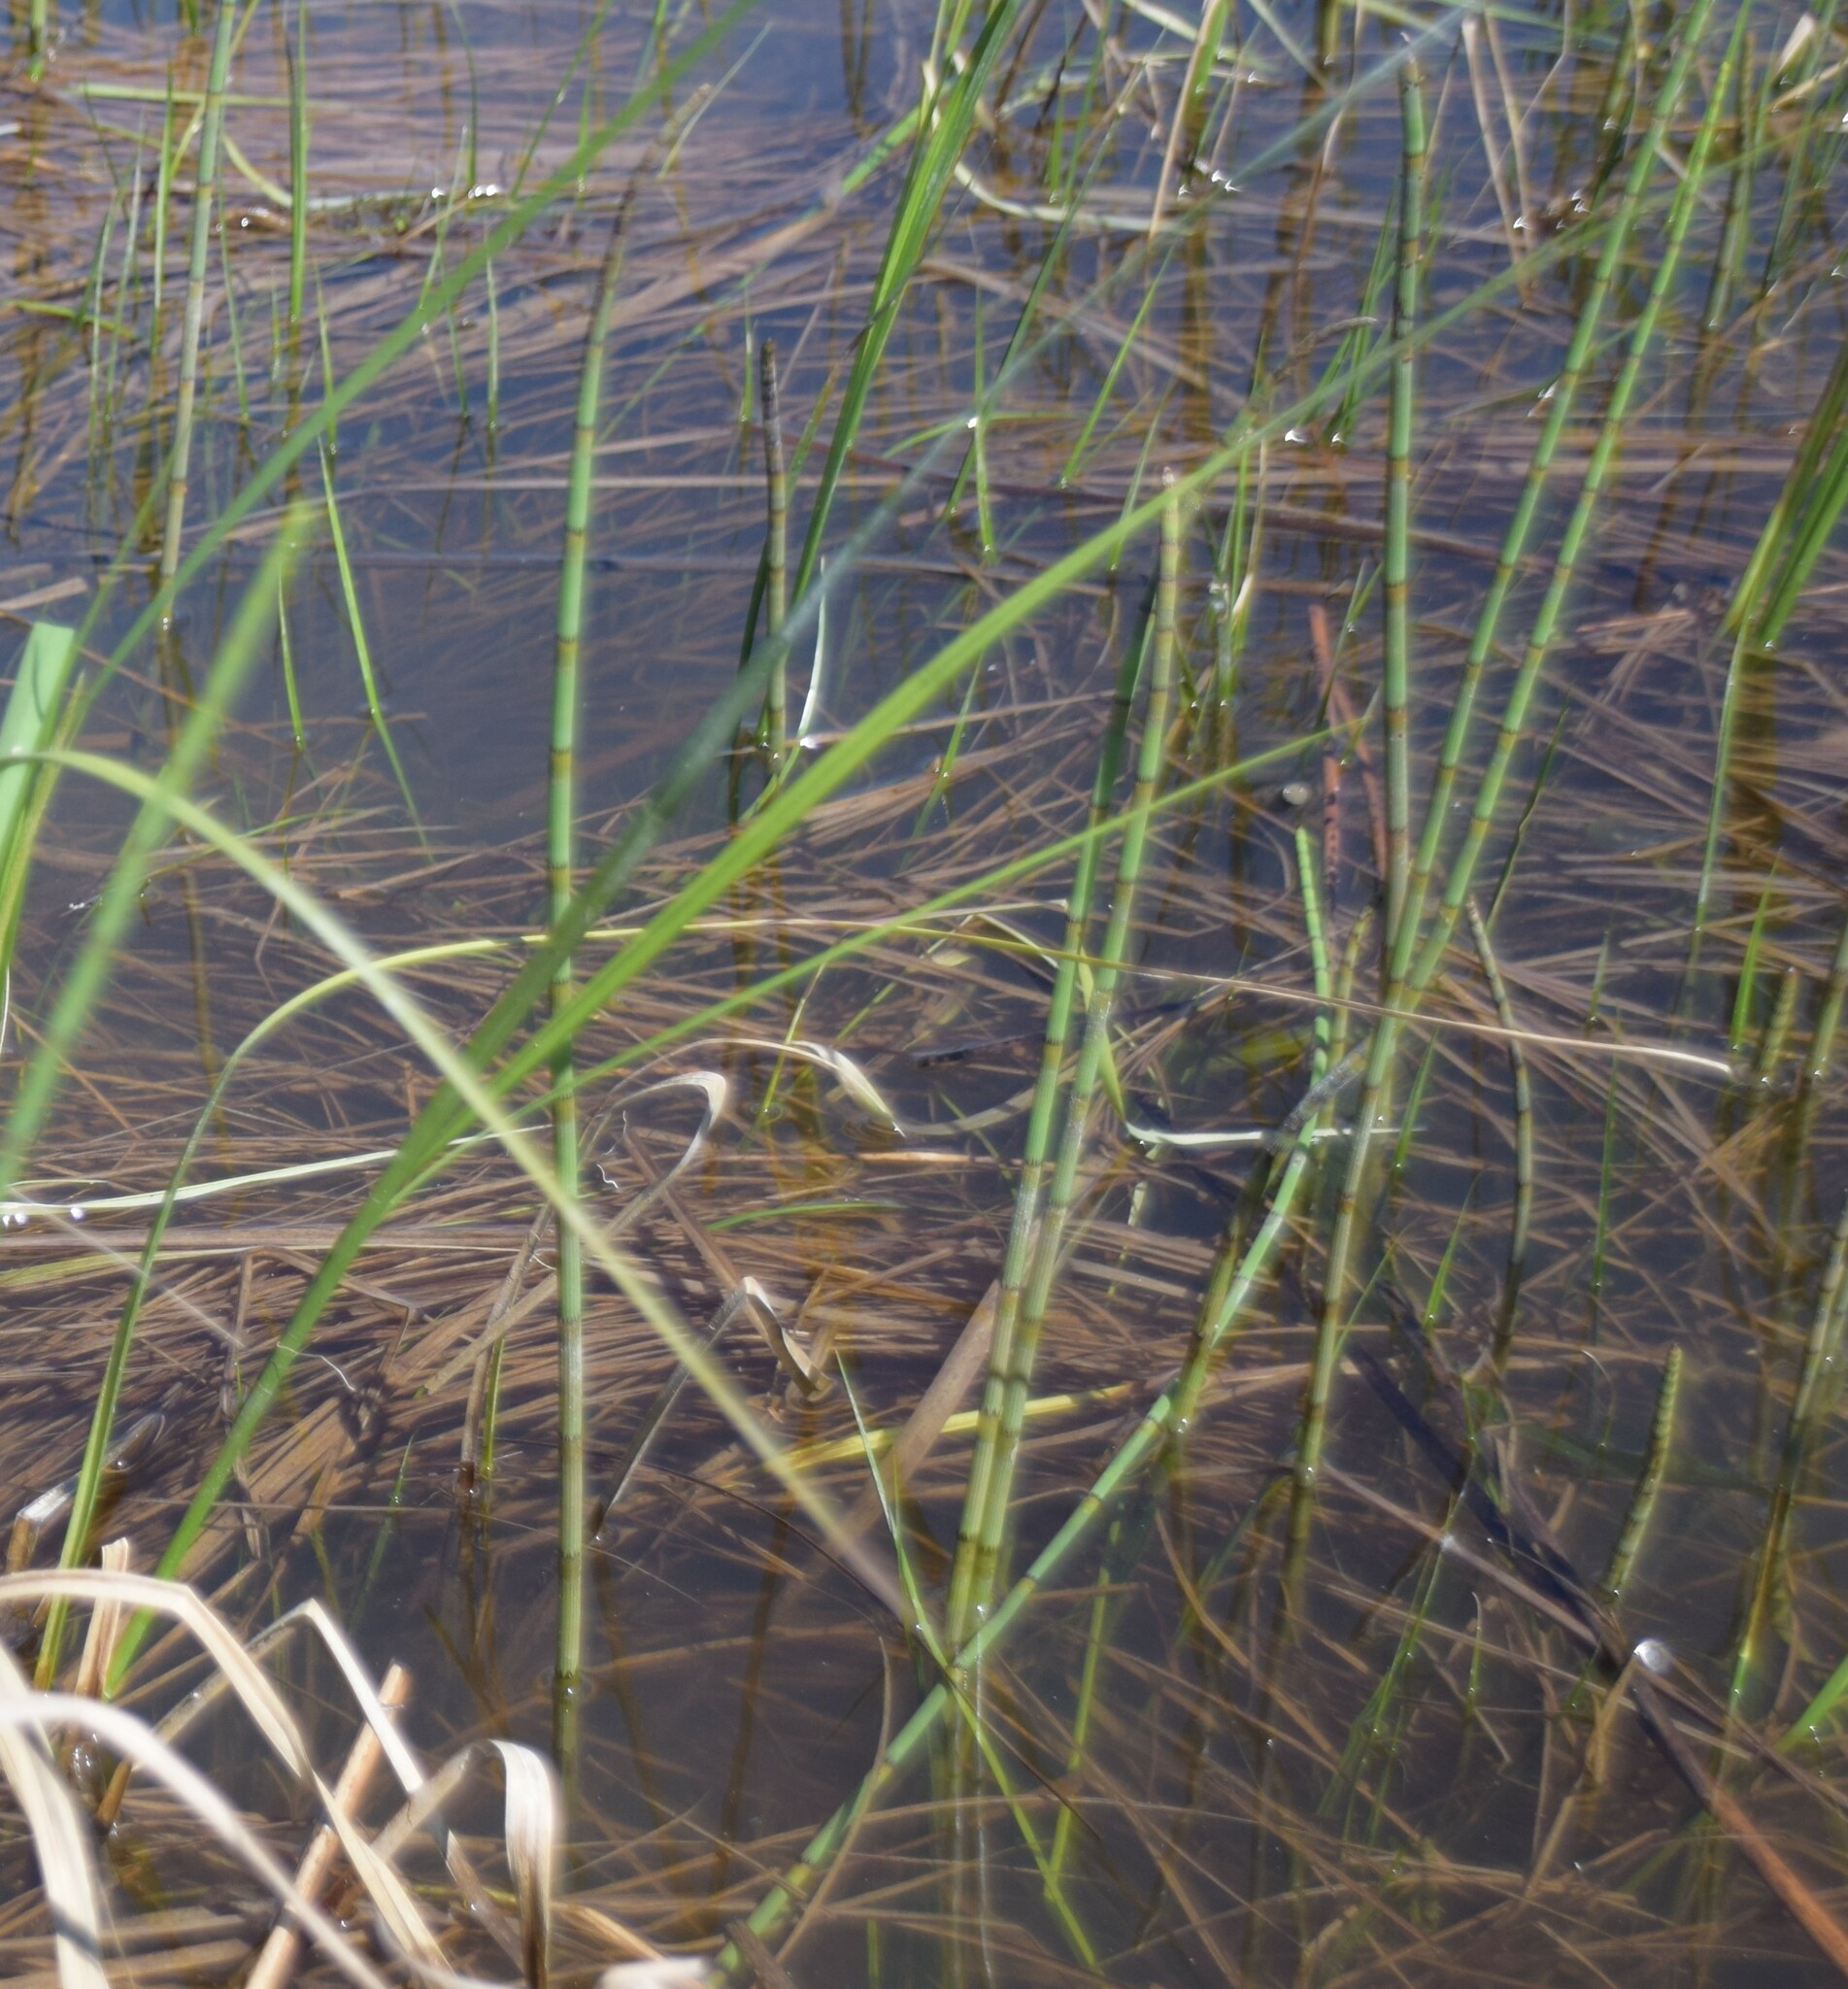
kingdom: Plantae
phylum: Tracheophyta
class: Polypodiopsida
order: Equisetales
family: Equisetaceae
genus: Equisetum
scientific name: Equisetum fluviatile
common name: Water horsetail
